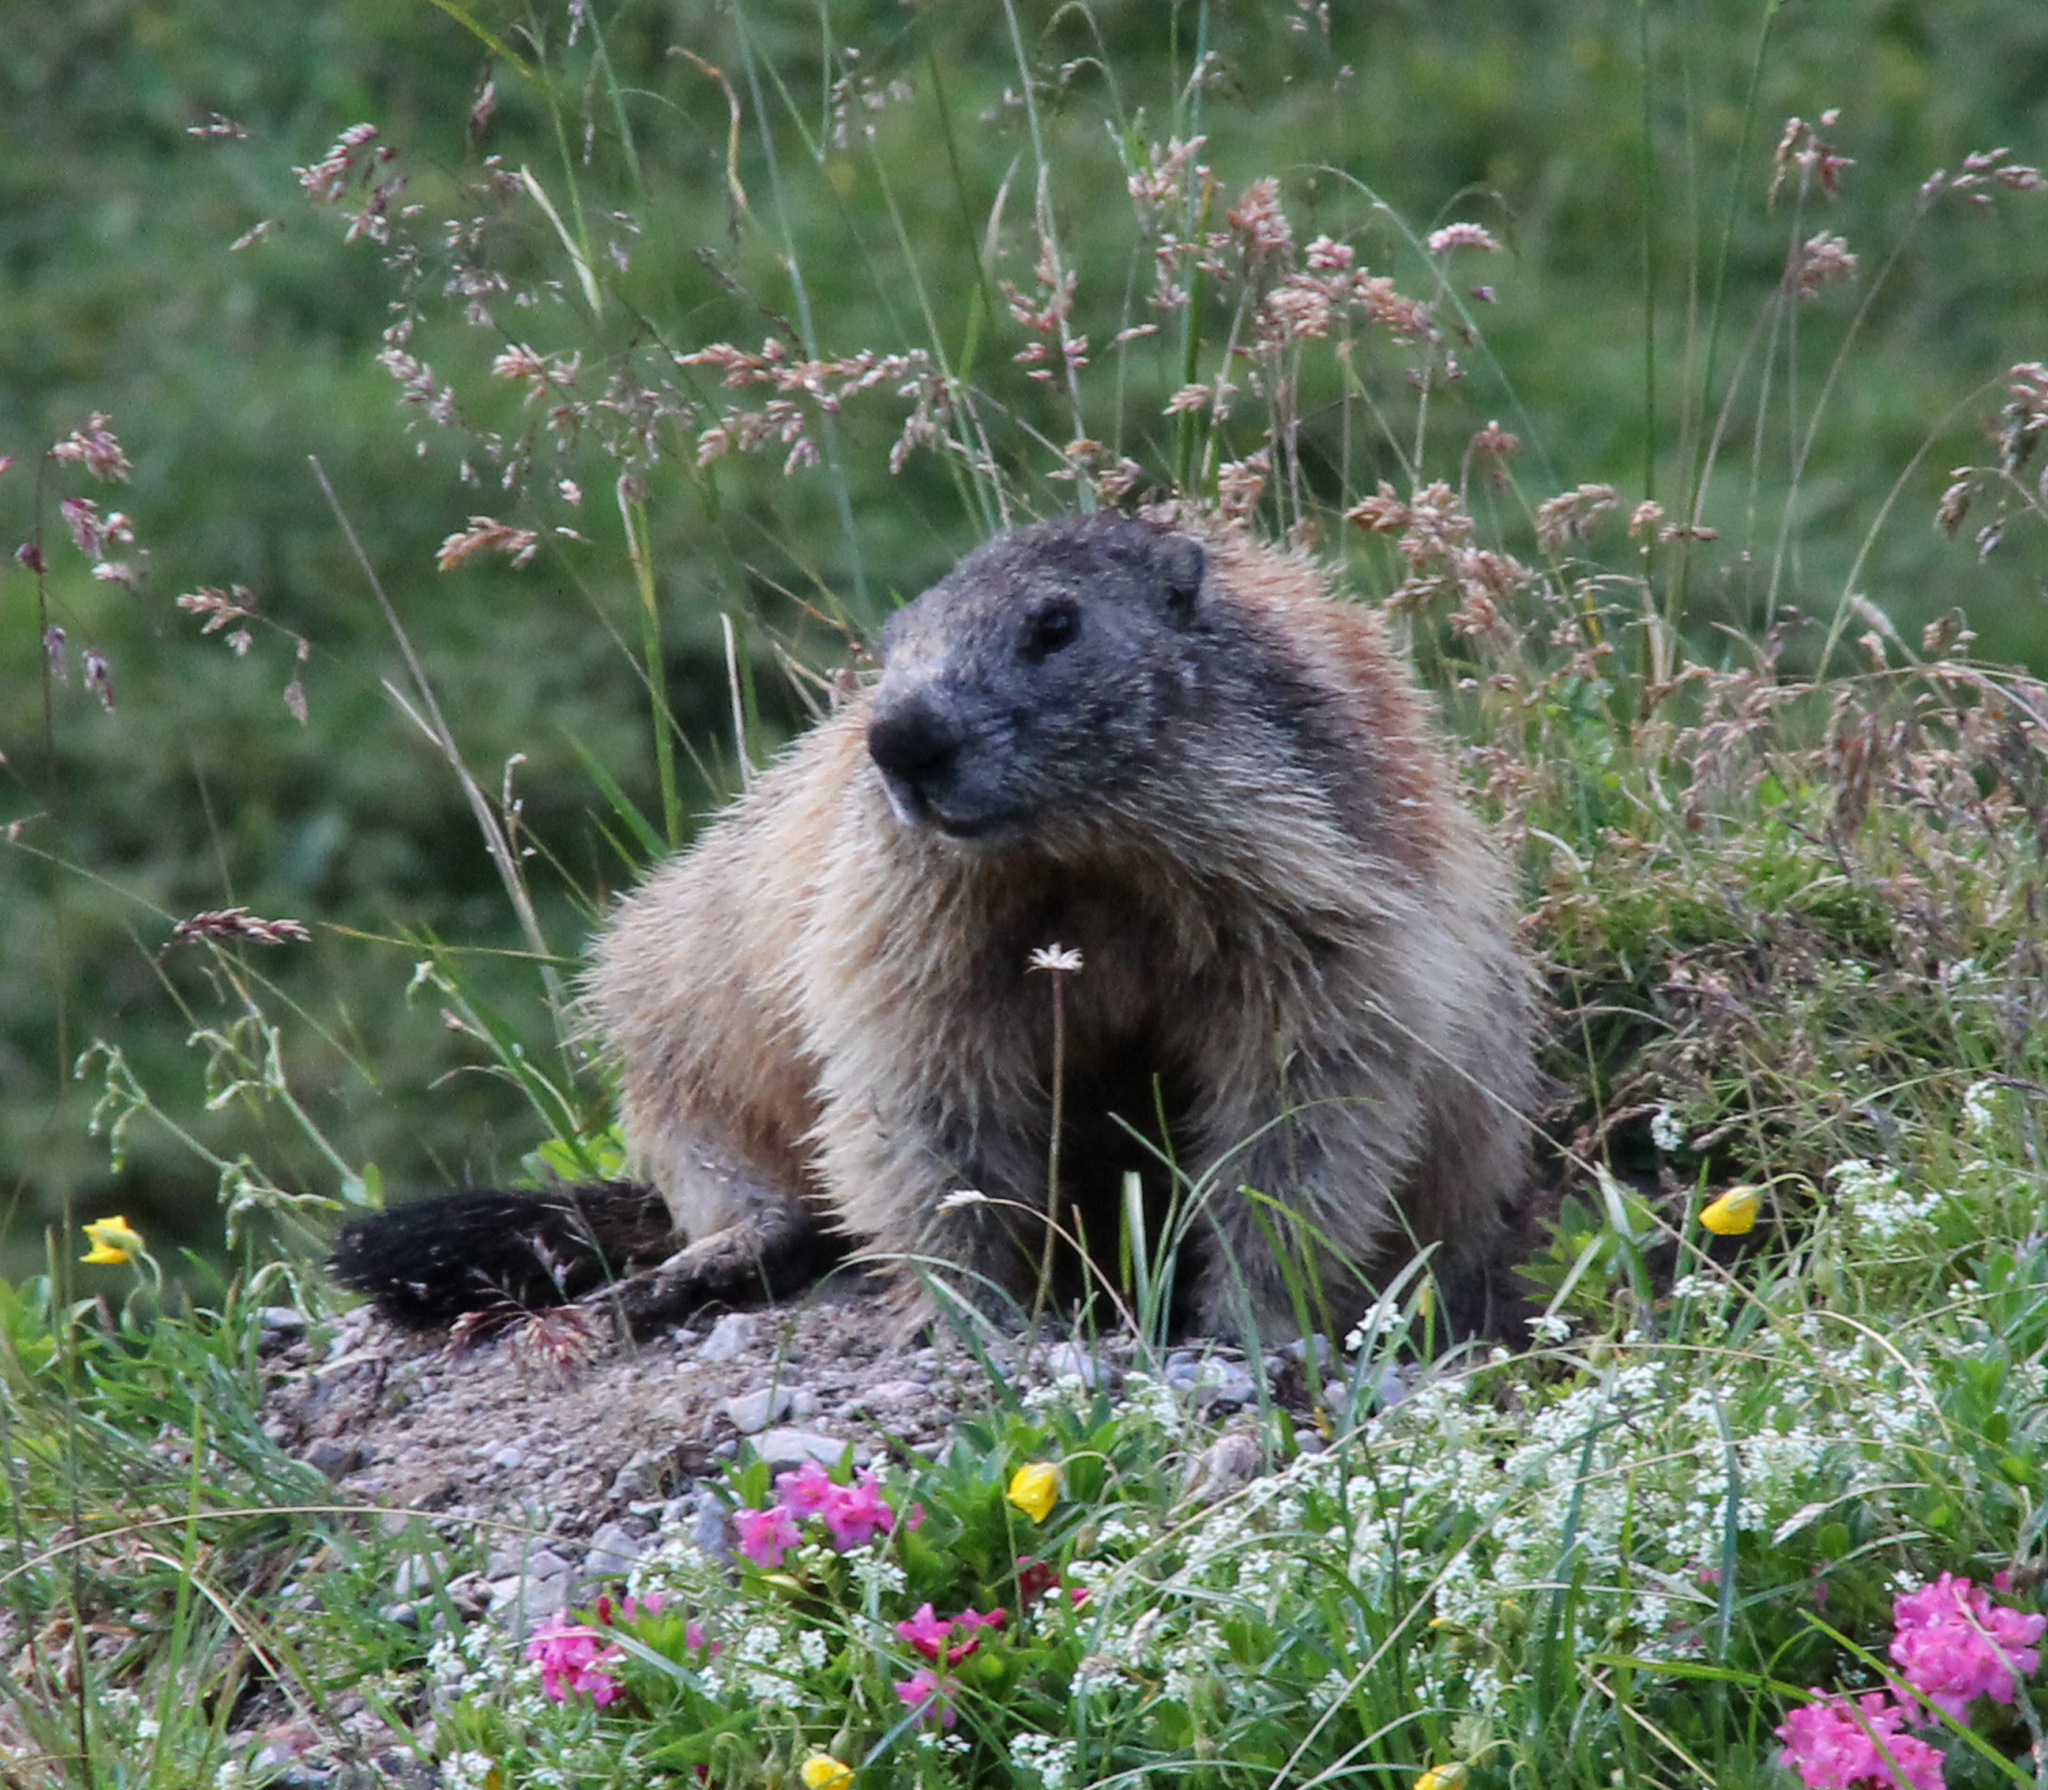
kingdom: Animalia
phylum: Chordata
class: Mammalia
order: Rodentia
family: Sciuridae
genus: Marmota
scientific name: Marmota marmota
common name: Alpine marmot
